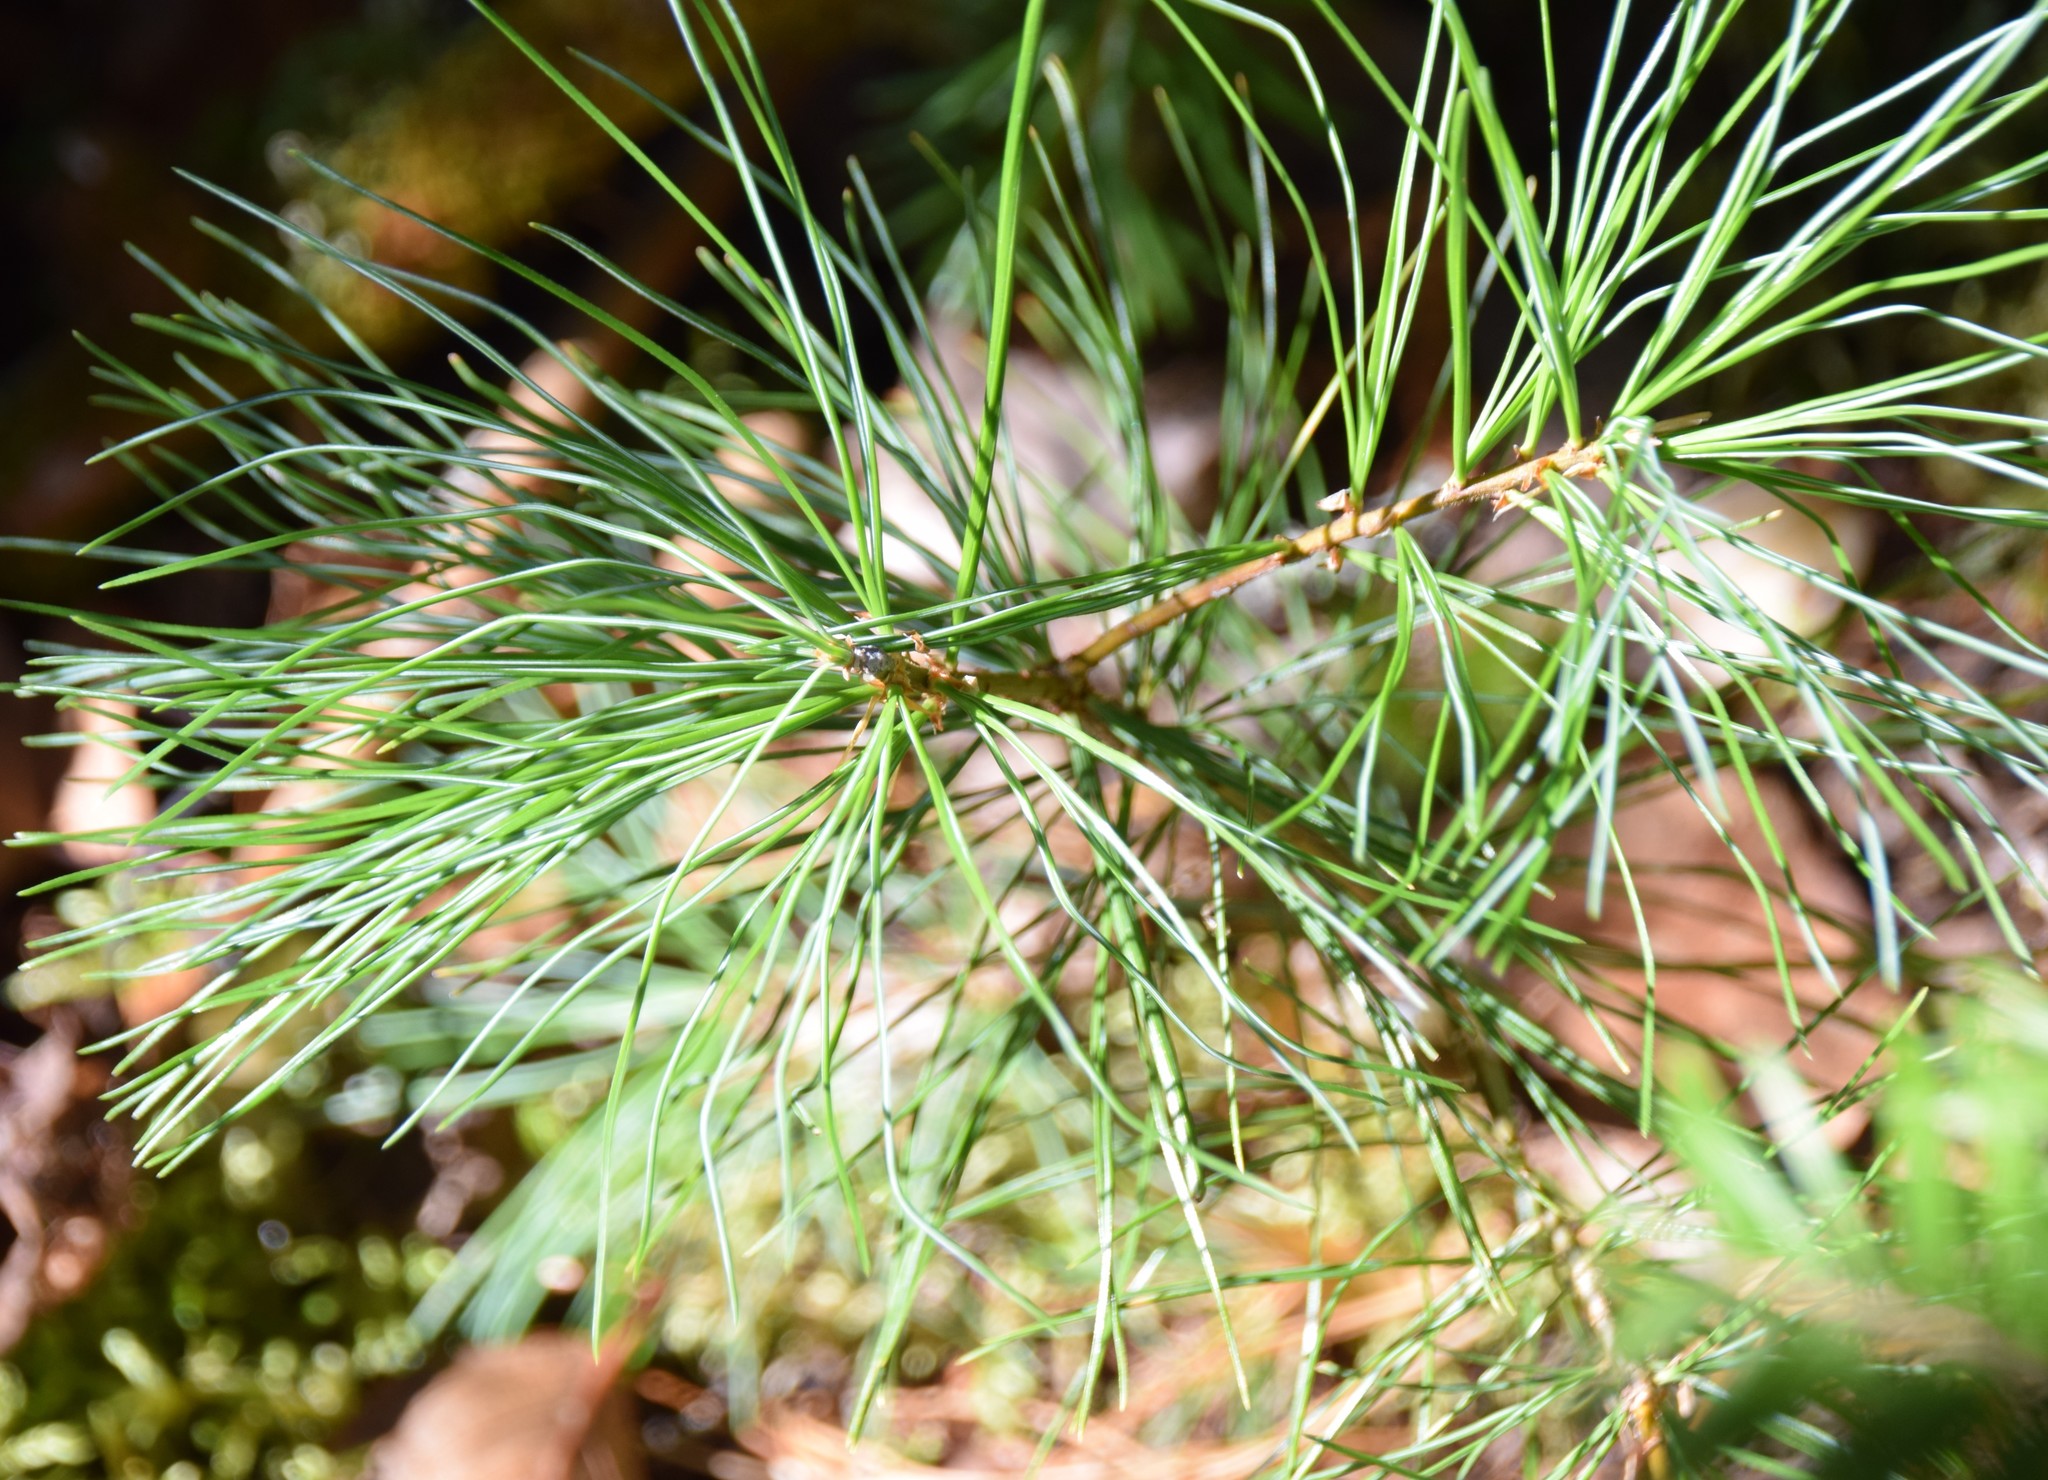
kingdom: Plantae
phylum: Tracheophyta
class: Pinopsida
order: Pinales
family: Pinaceae
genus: Pinus
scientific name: Pinus strobus
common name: Weymouth pine
